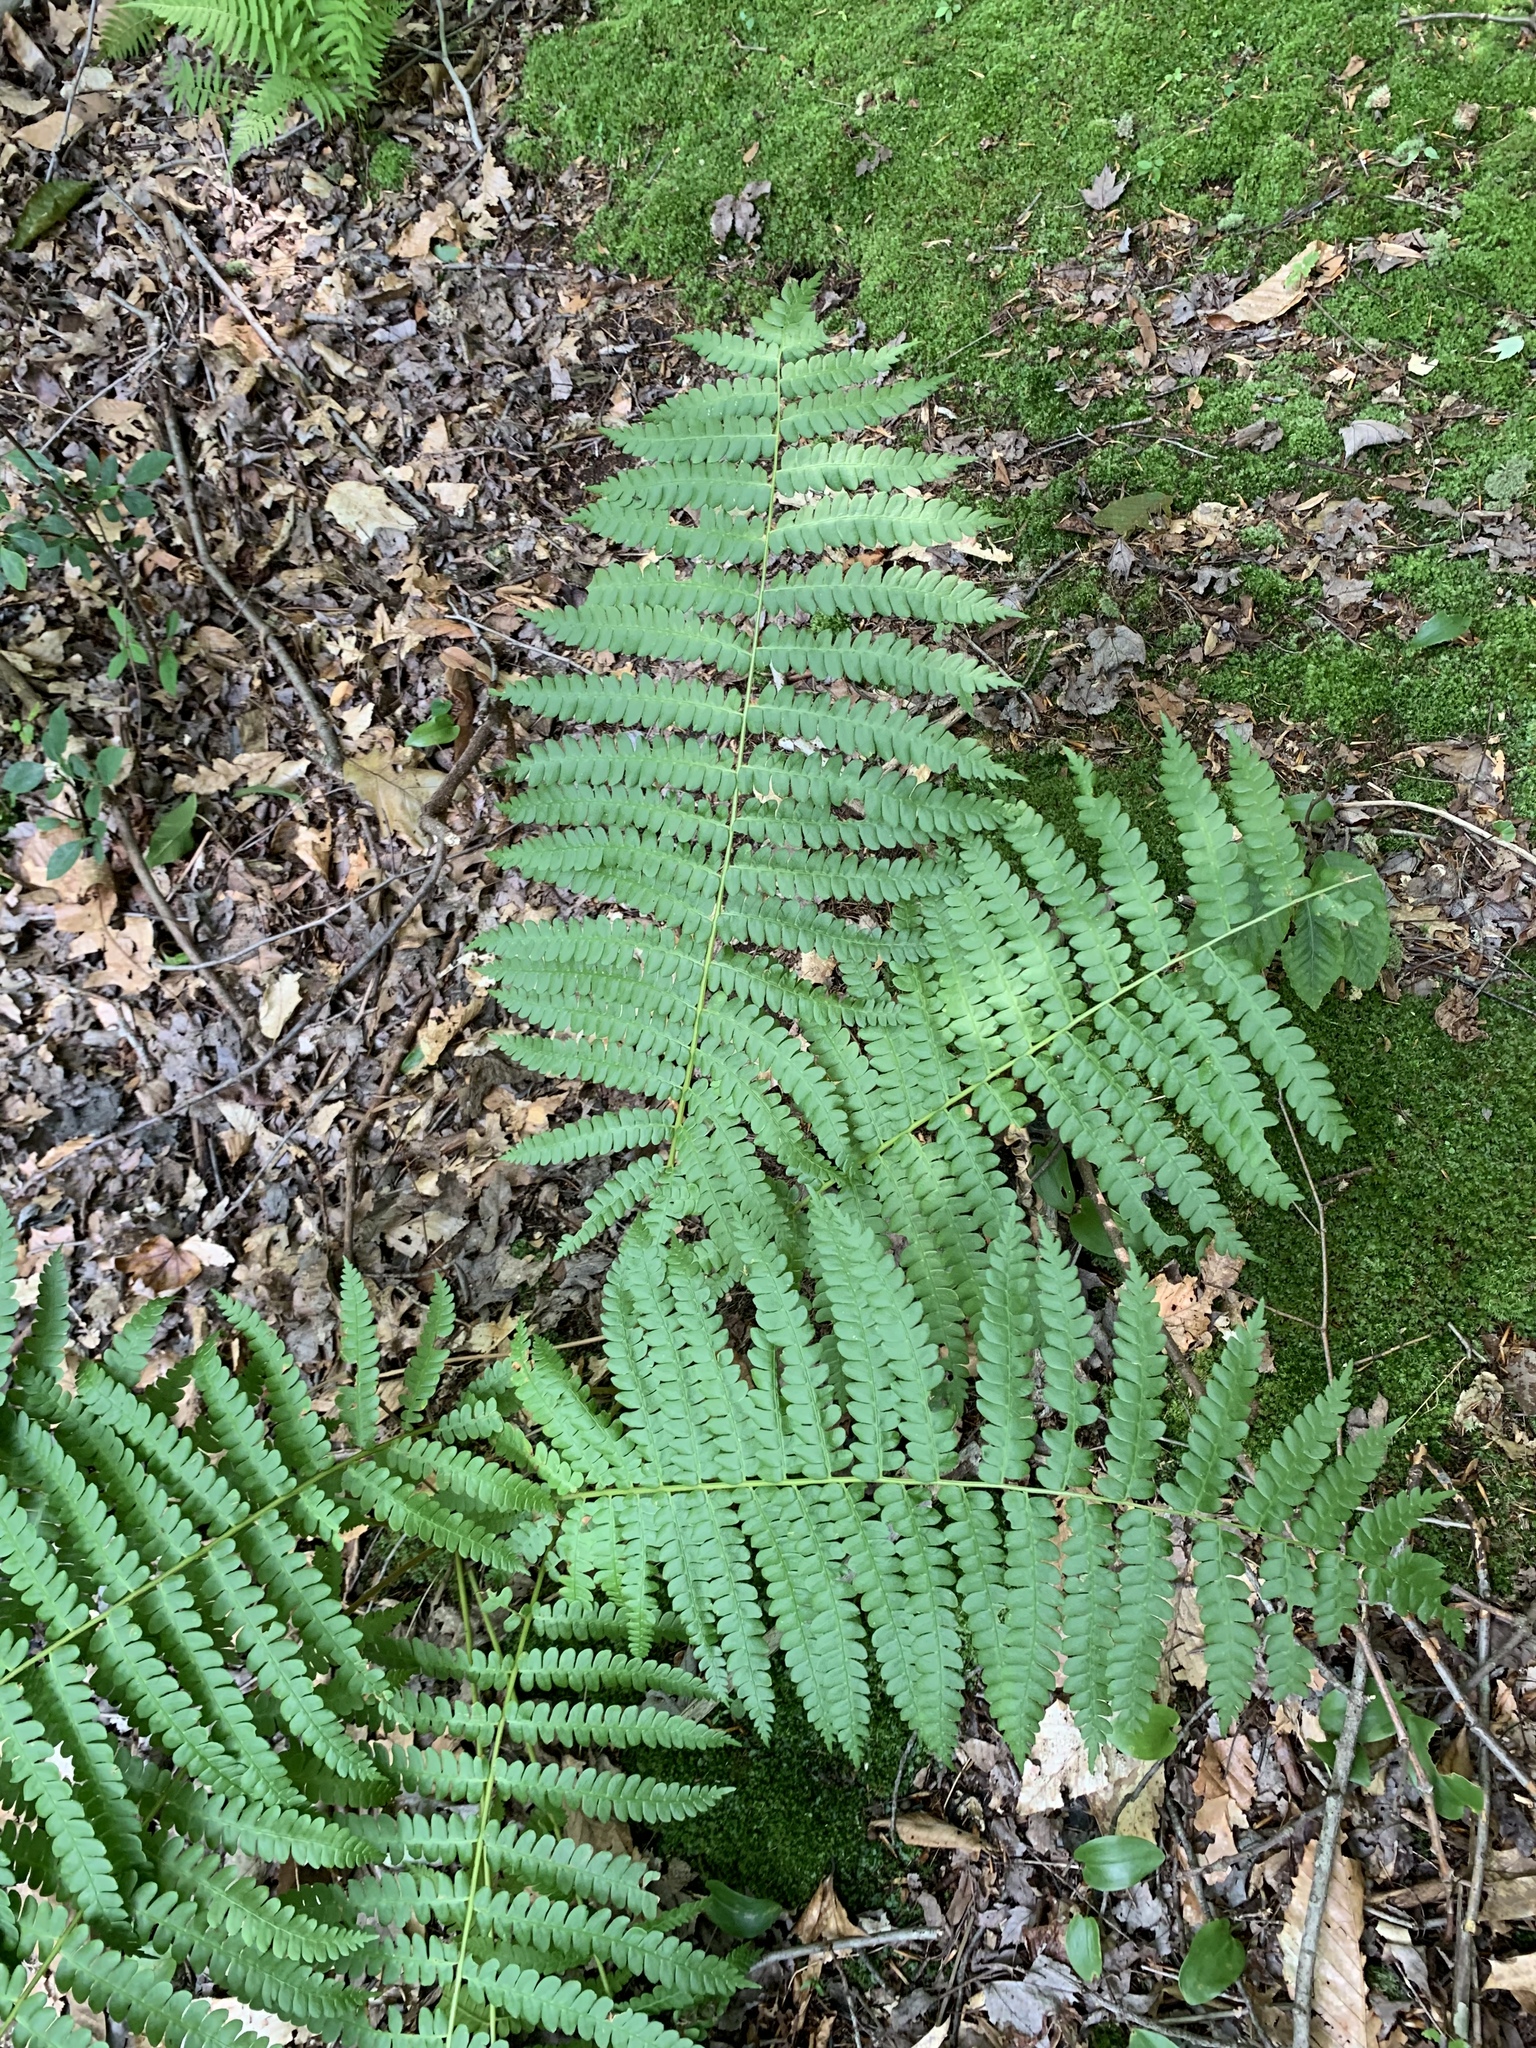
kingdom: Plantae
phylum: Tracheophyta
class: Polypodiopsida
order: Osmundales
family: Osmundaceae
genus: Osmundastrum
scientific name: Osmundastrum cinnamomeum
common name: Cinnamon fern
